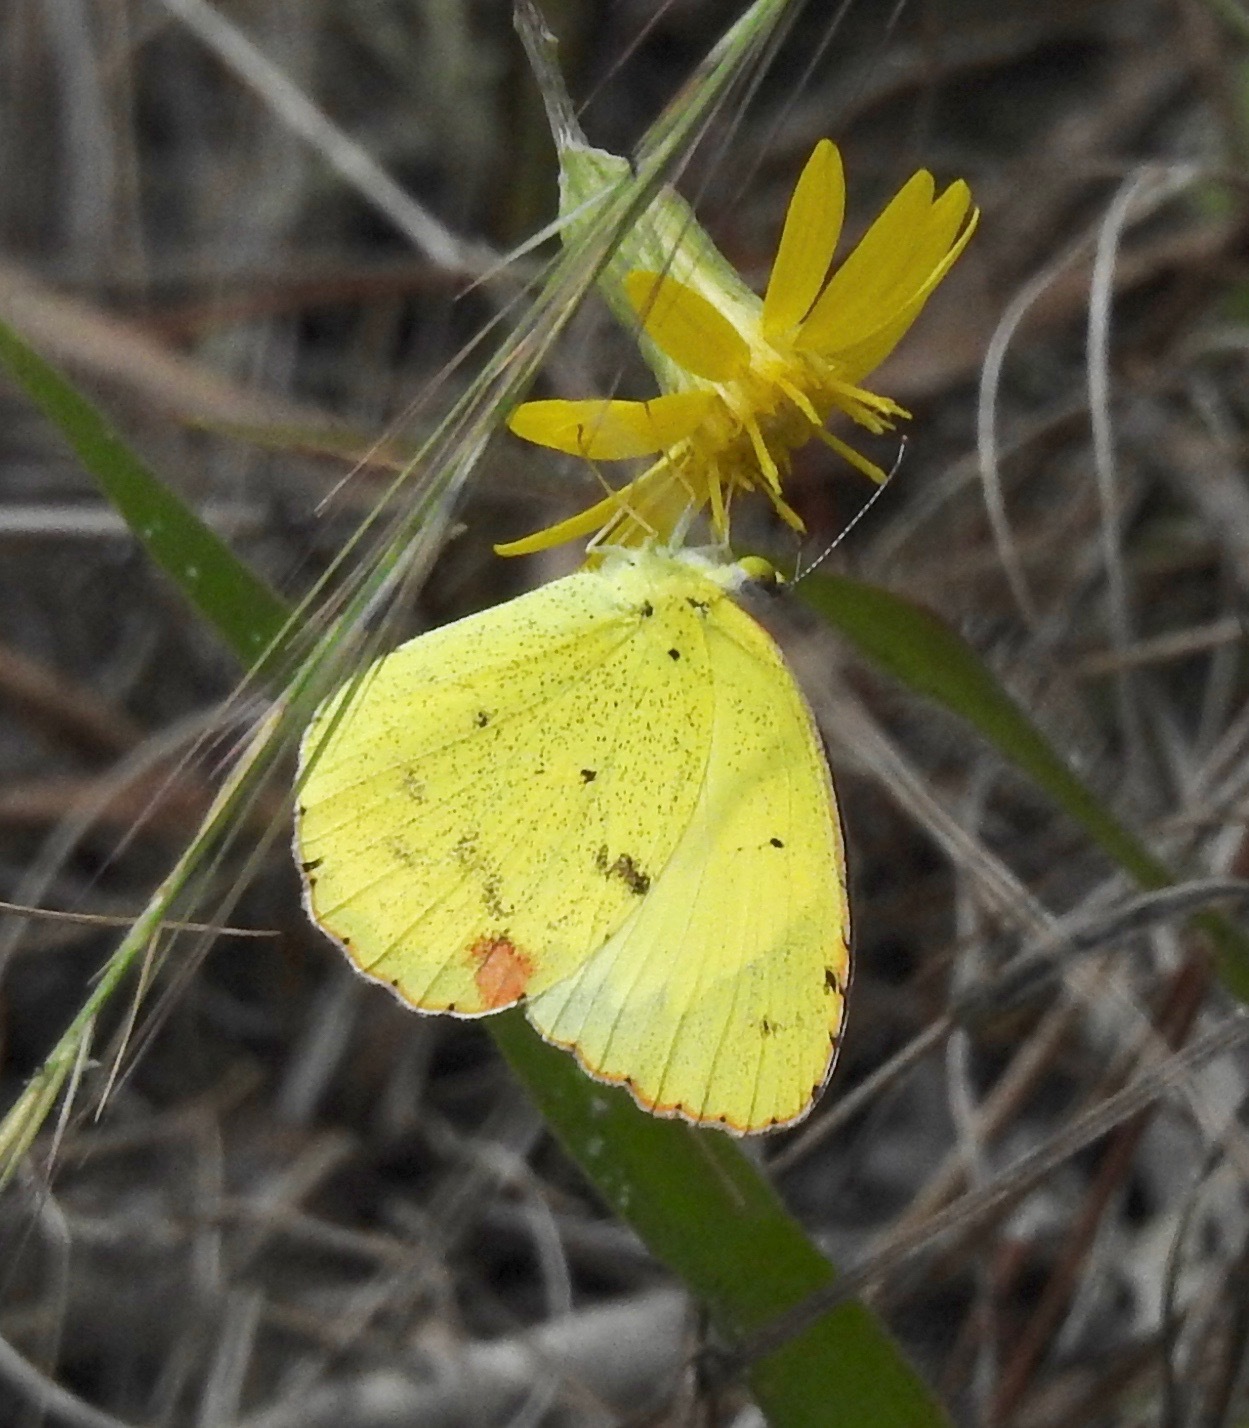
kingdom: Animalia
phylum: Arthropoda
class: Insecta
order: Lepidoptera
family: Pieridae
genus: Pyrisitia
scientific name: Pyrisitia lisa
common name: Little yellow
